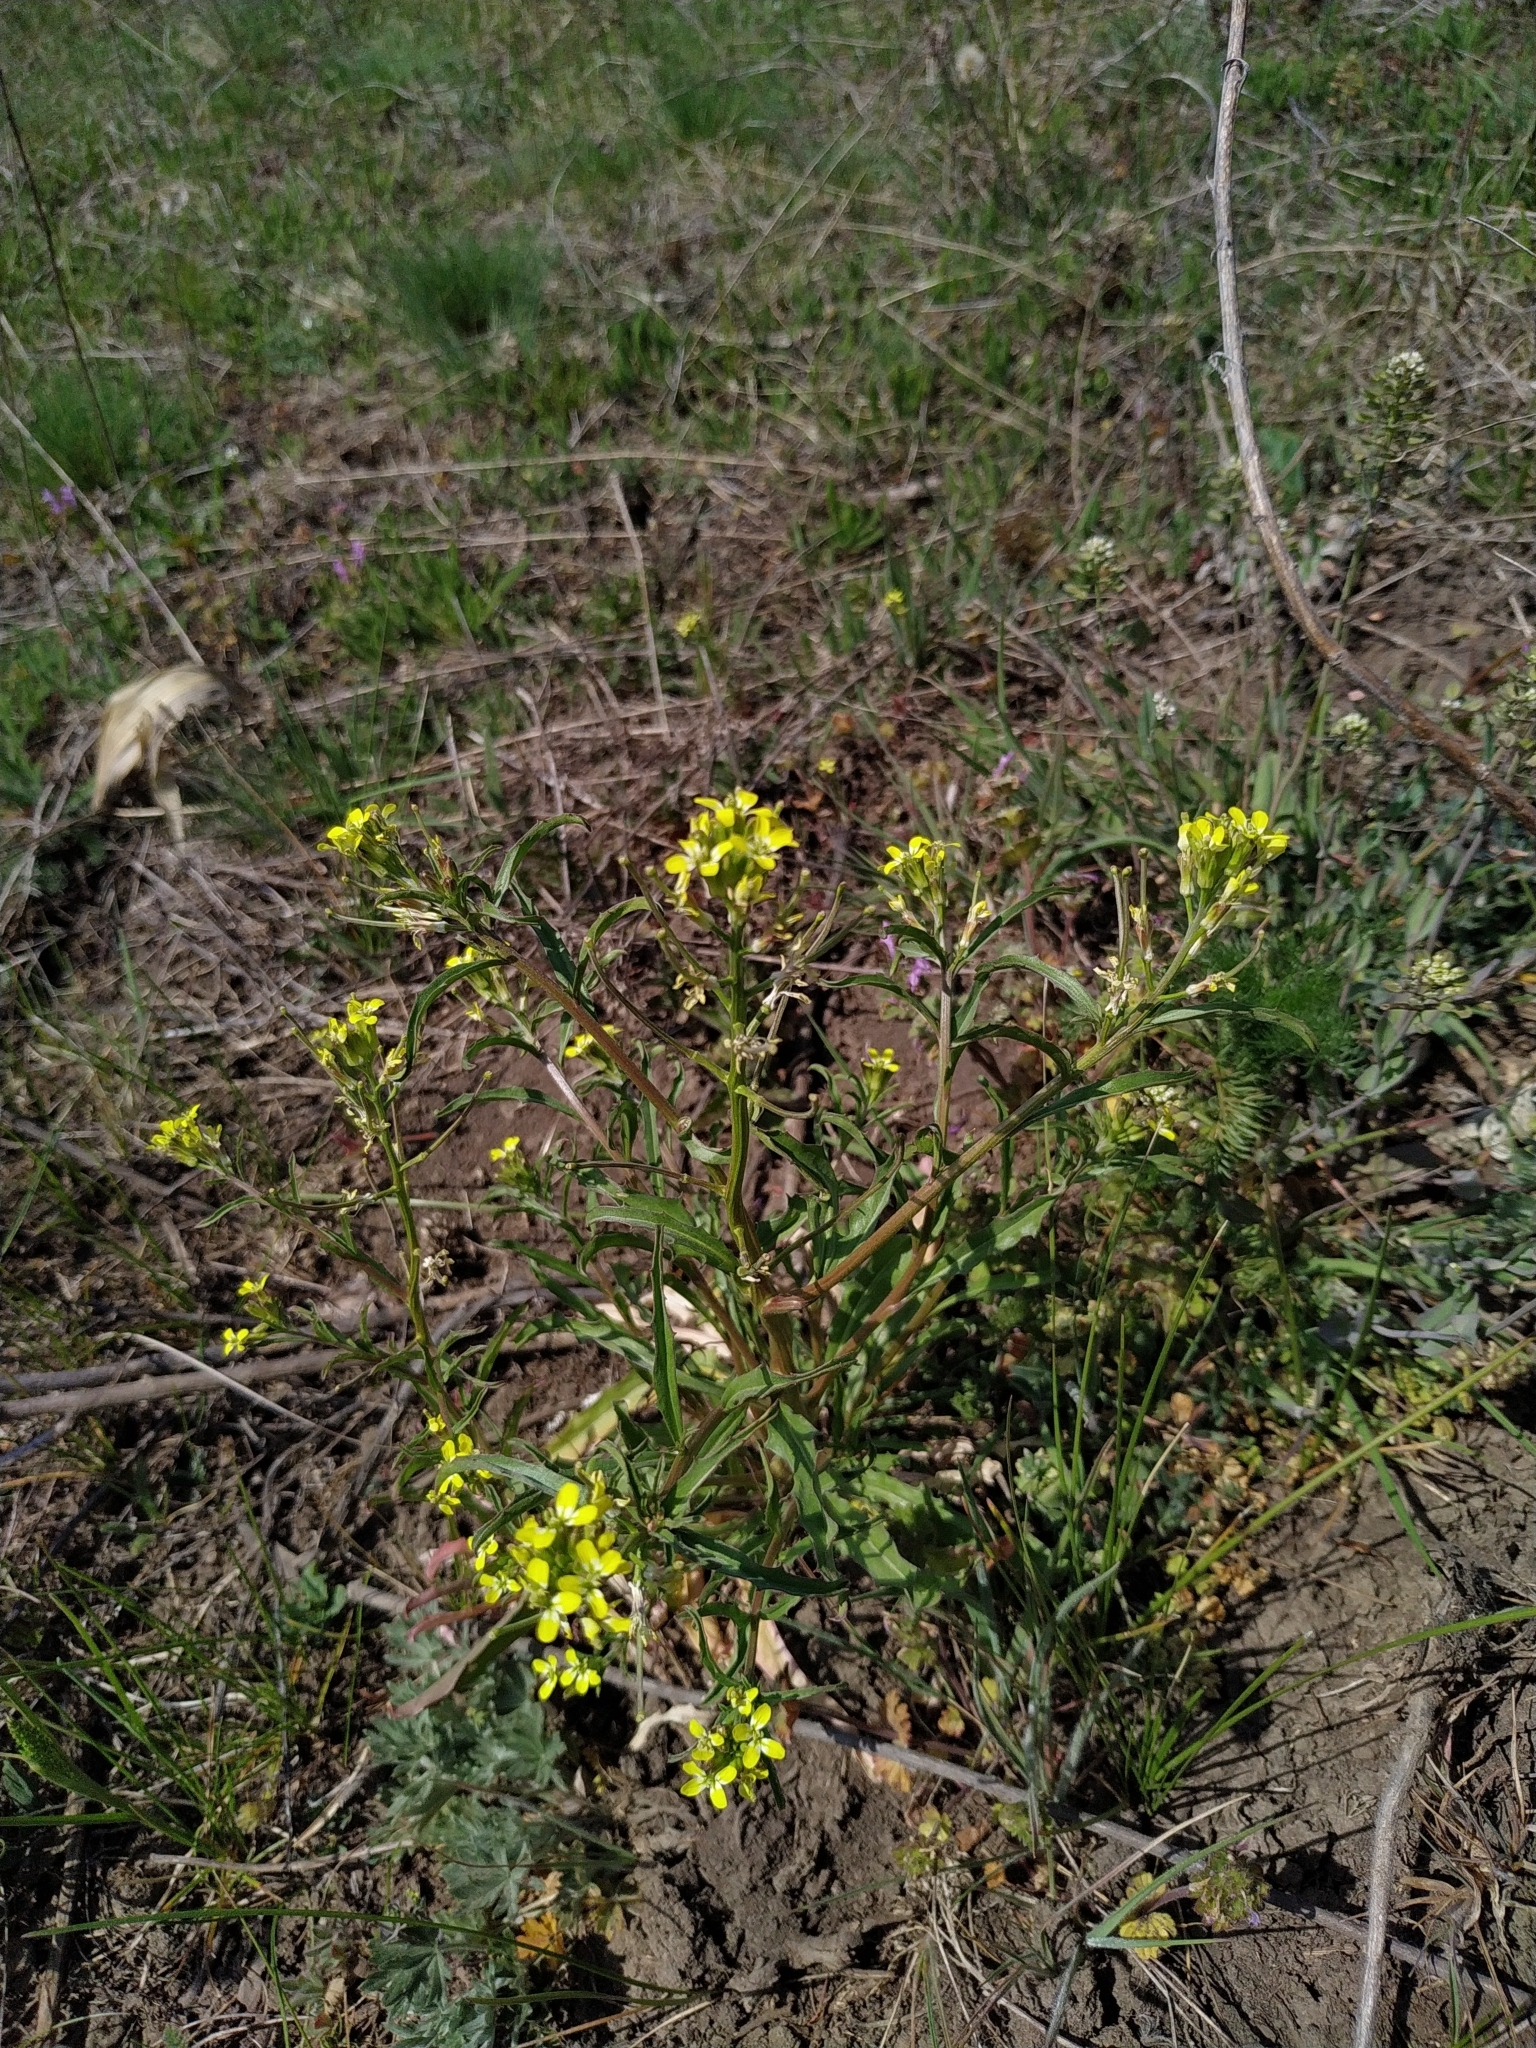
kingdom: Plantae
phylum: Tracheophyta
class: Magnoliopsida
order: Brassicales
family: Brassicaceae
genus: Erysimum
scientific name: Erysimum repandum
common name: Spreading wallflower
